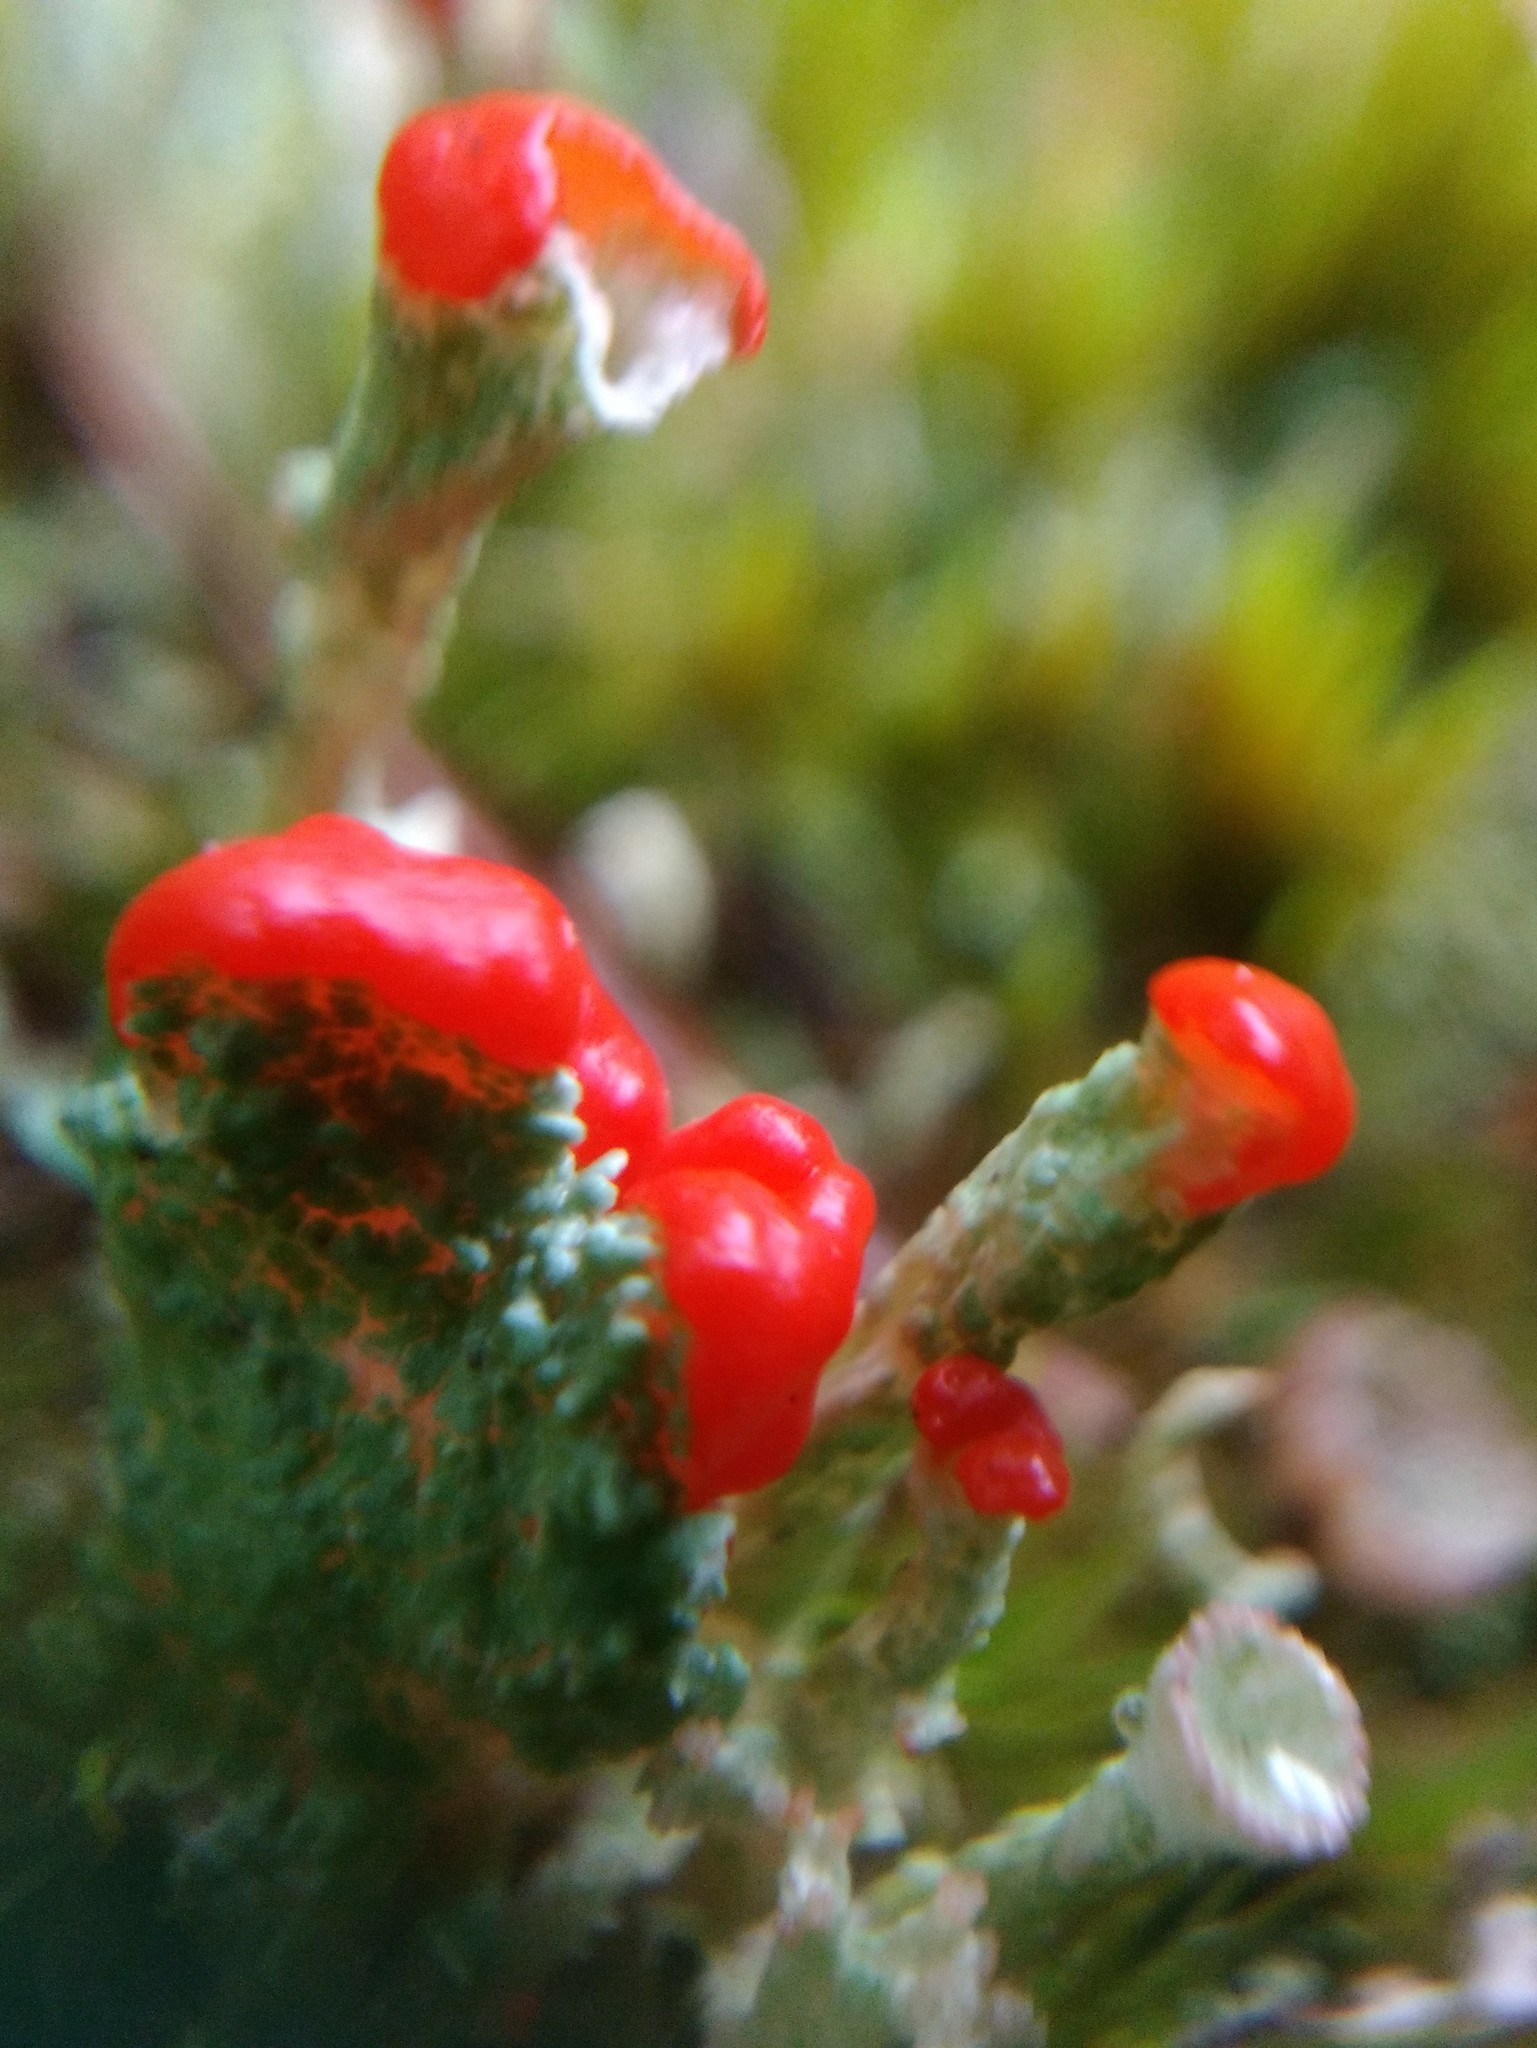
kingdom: Fungi
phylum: Ascomycota
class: Lecanoromycetes
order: Lecanorales
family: Cladoniaceae
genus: Cladonia
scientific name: Cladonia cristatella
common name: British soldier lichen
